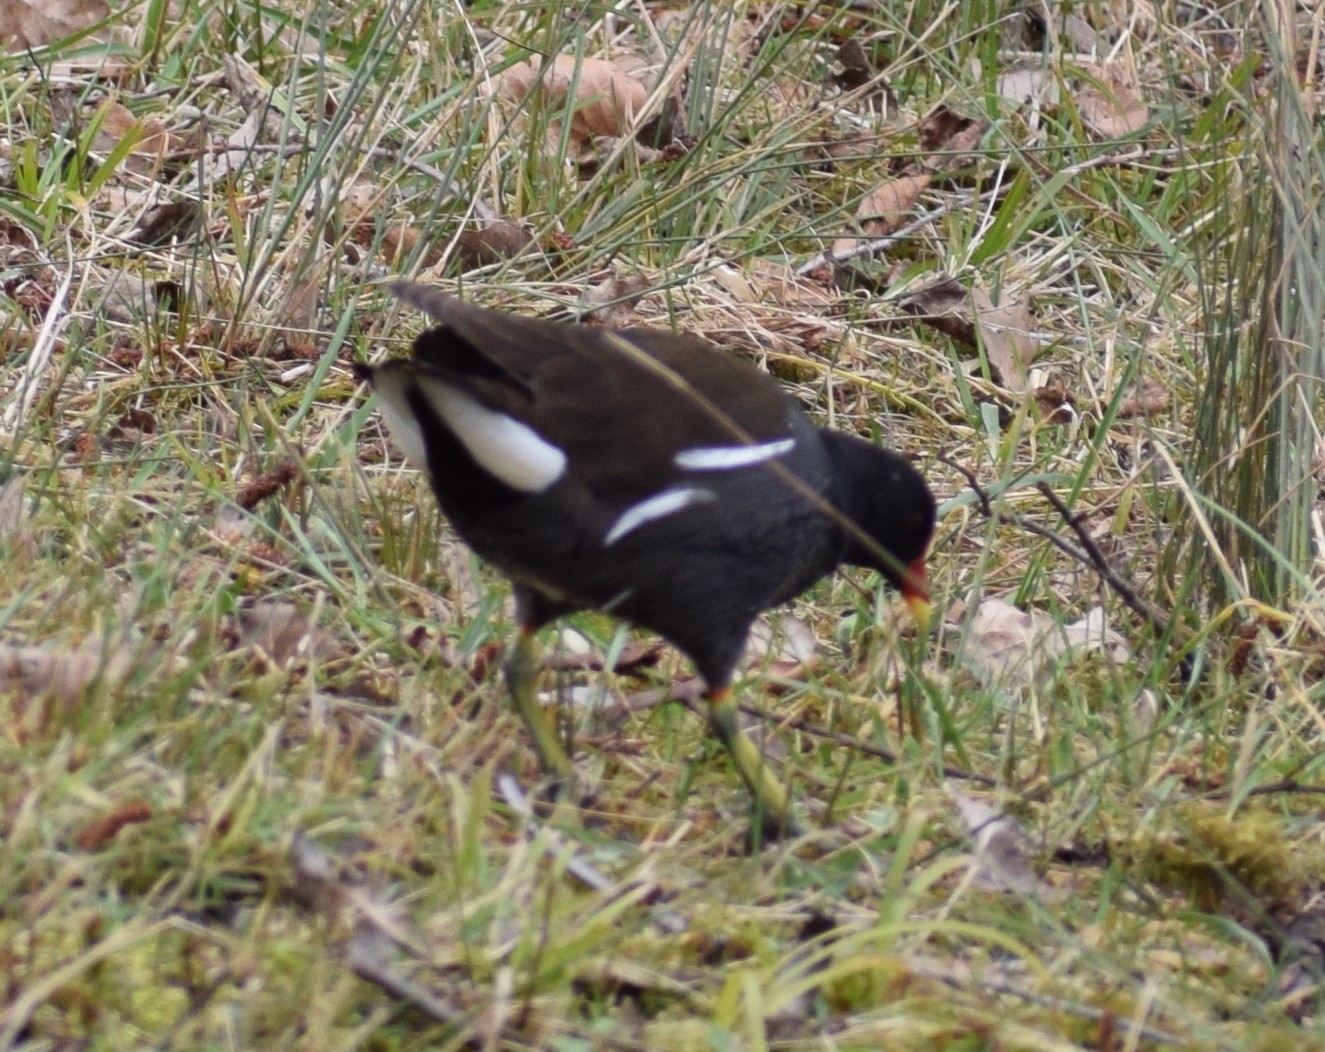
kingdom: Animalia
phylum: Chordata
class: Aves
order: Gruiformes
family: Rallidae
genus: Gallinula
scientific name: Gallinula chloropus
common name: Common moorhen
